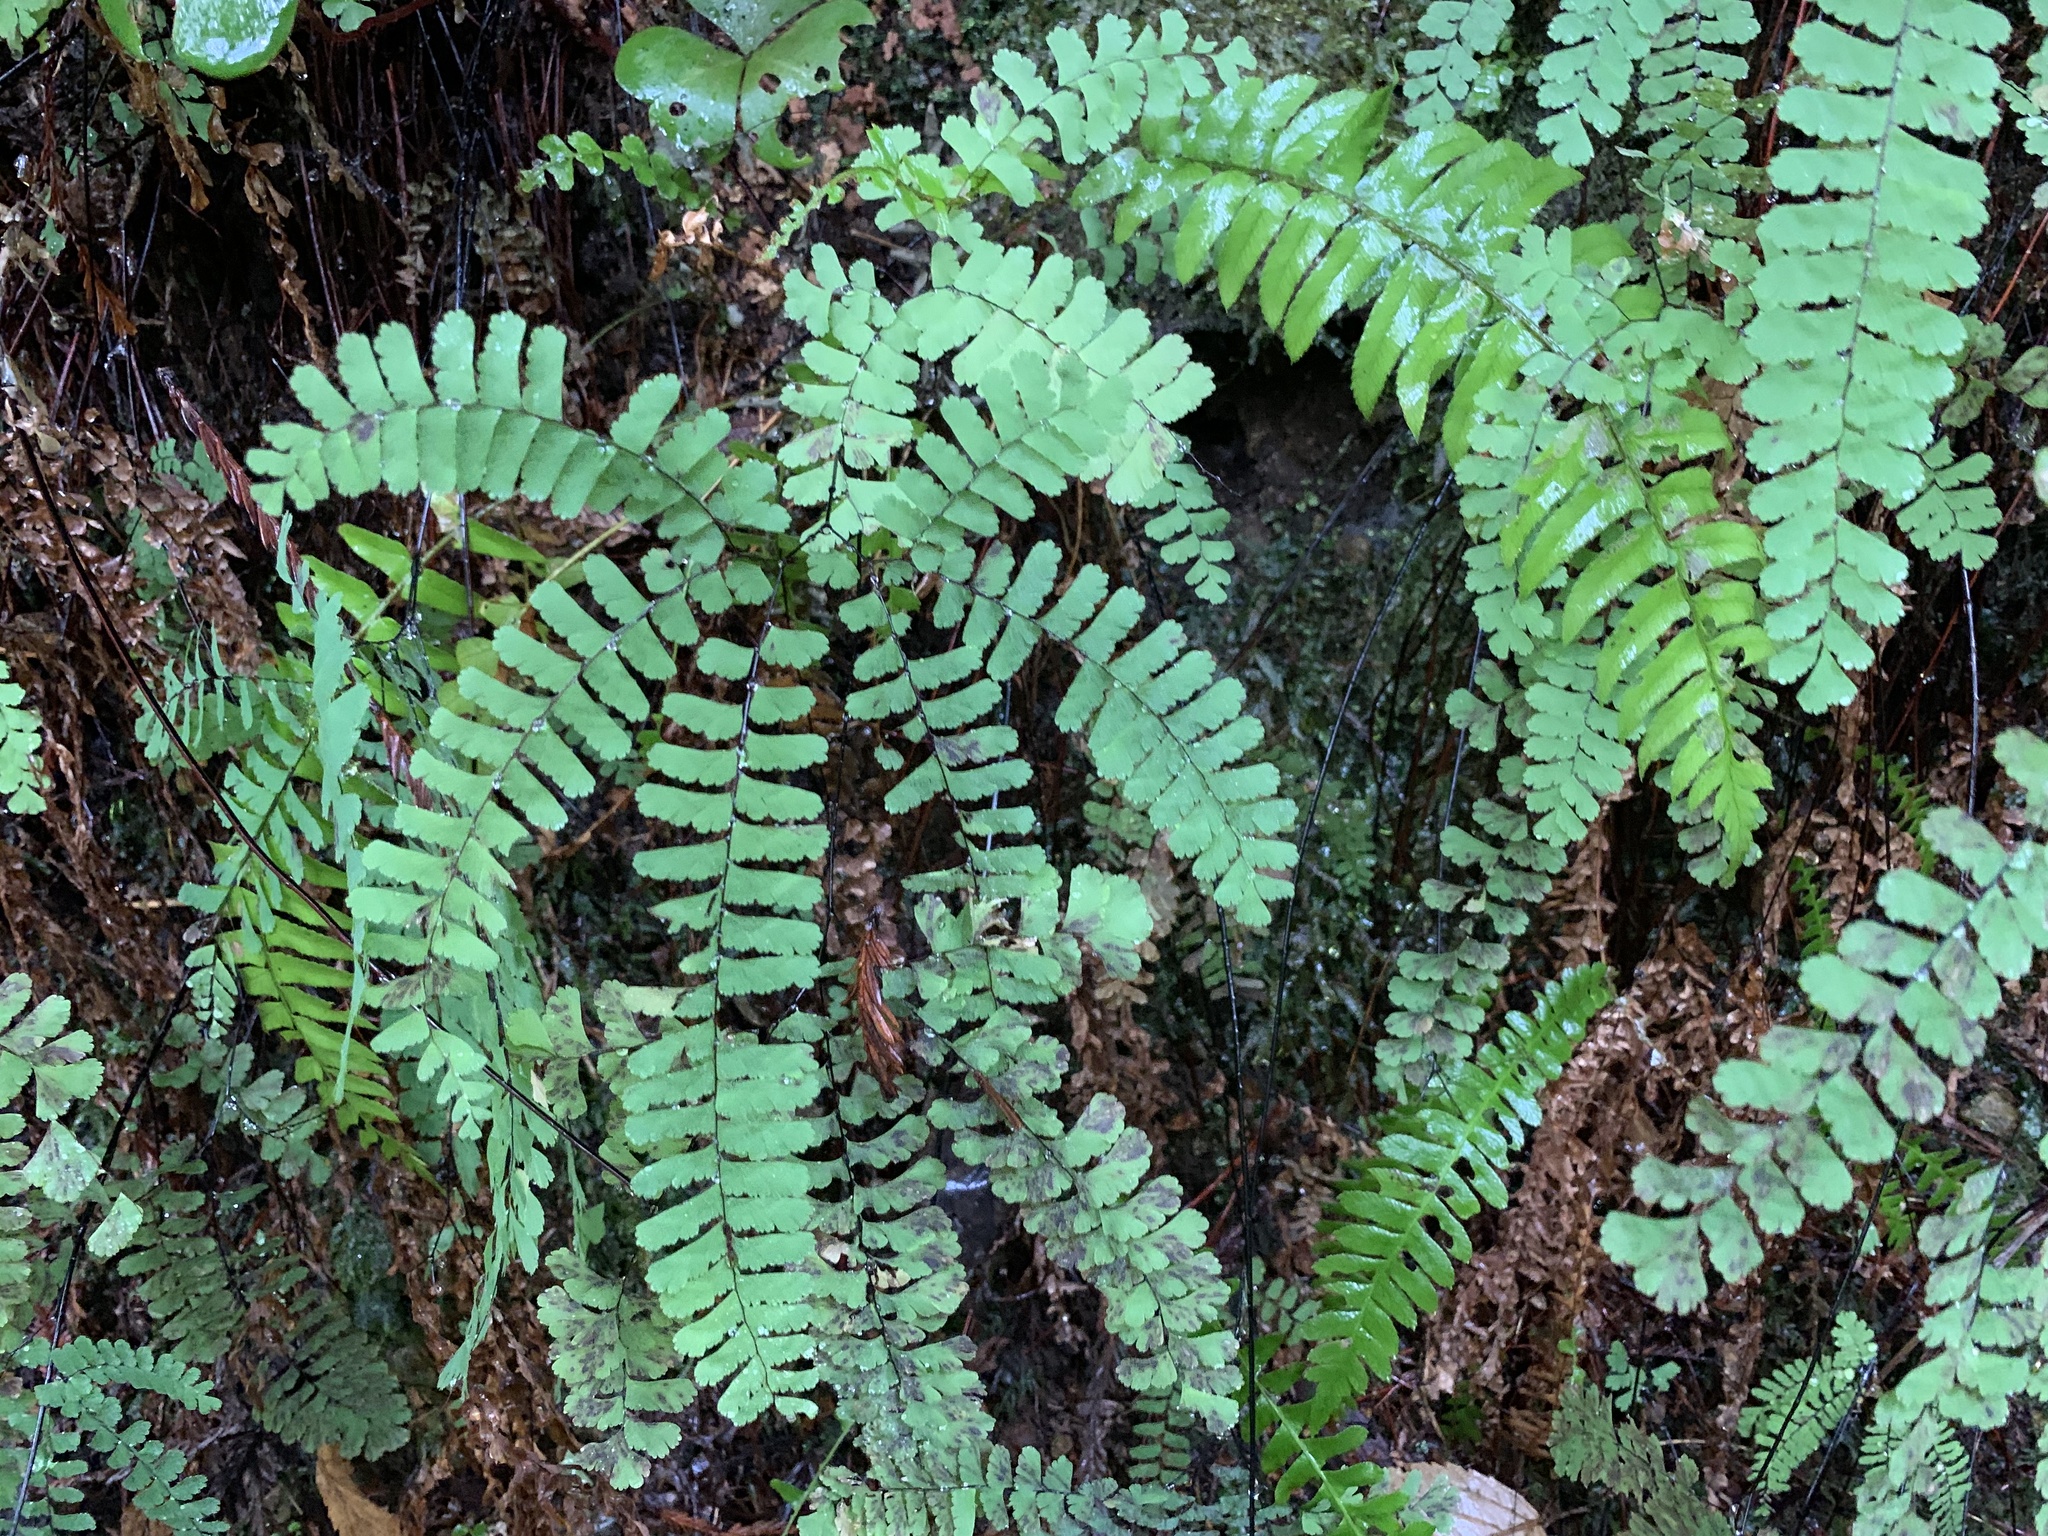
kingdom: Plantae
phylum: Tracheophyta
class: Polypodiopsida
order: Polypodiales
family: Pteridaceae
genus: Adiantum
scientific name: Adiantum aleuticum
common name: Aleutian maidenhair fern
